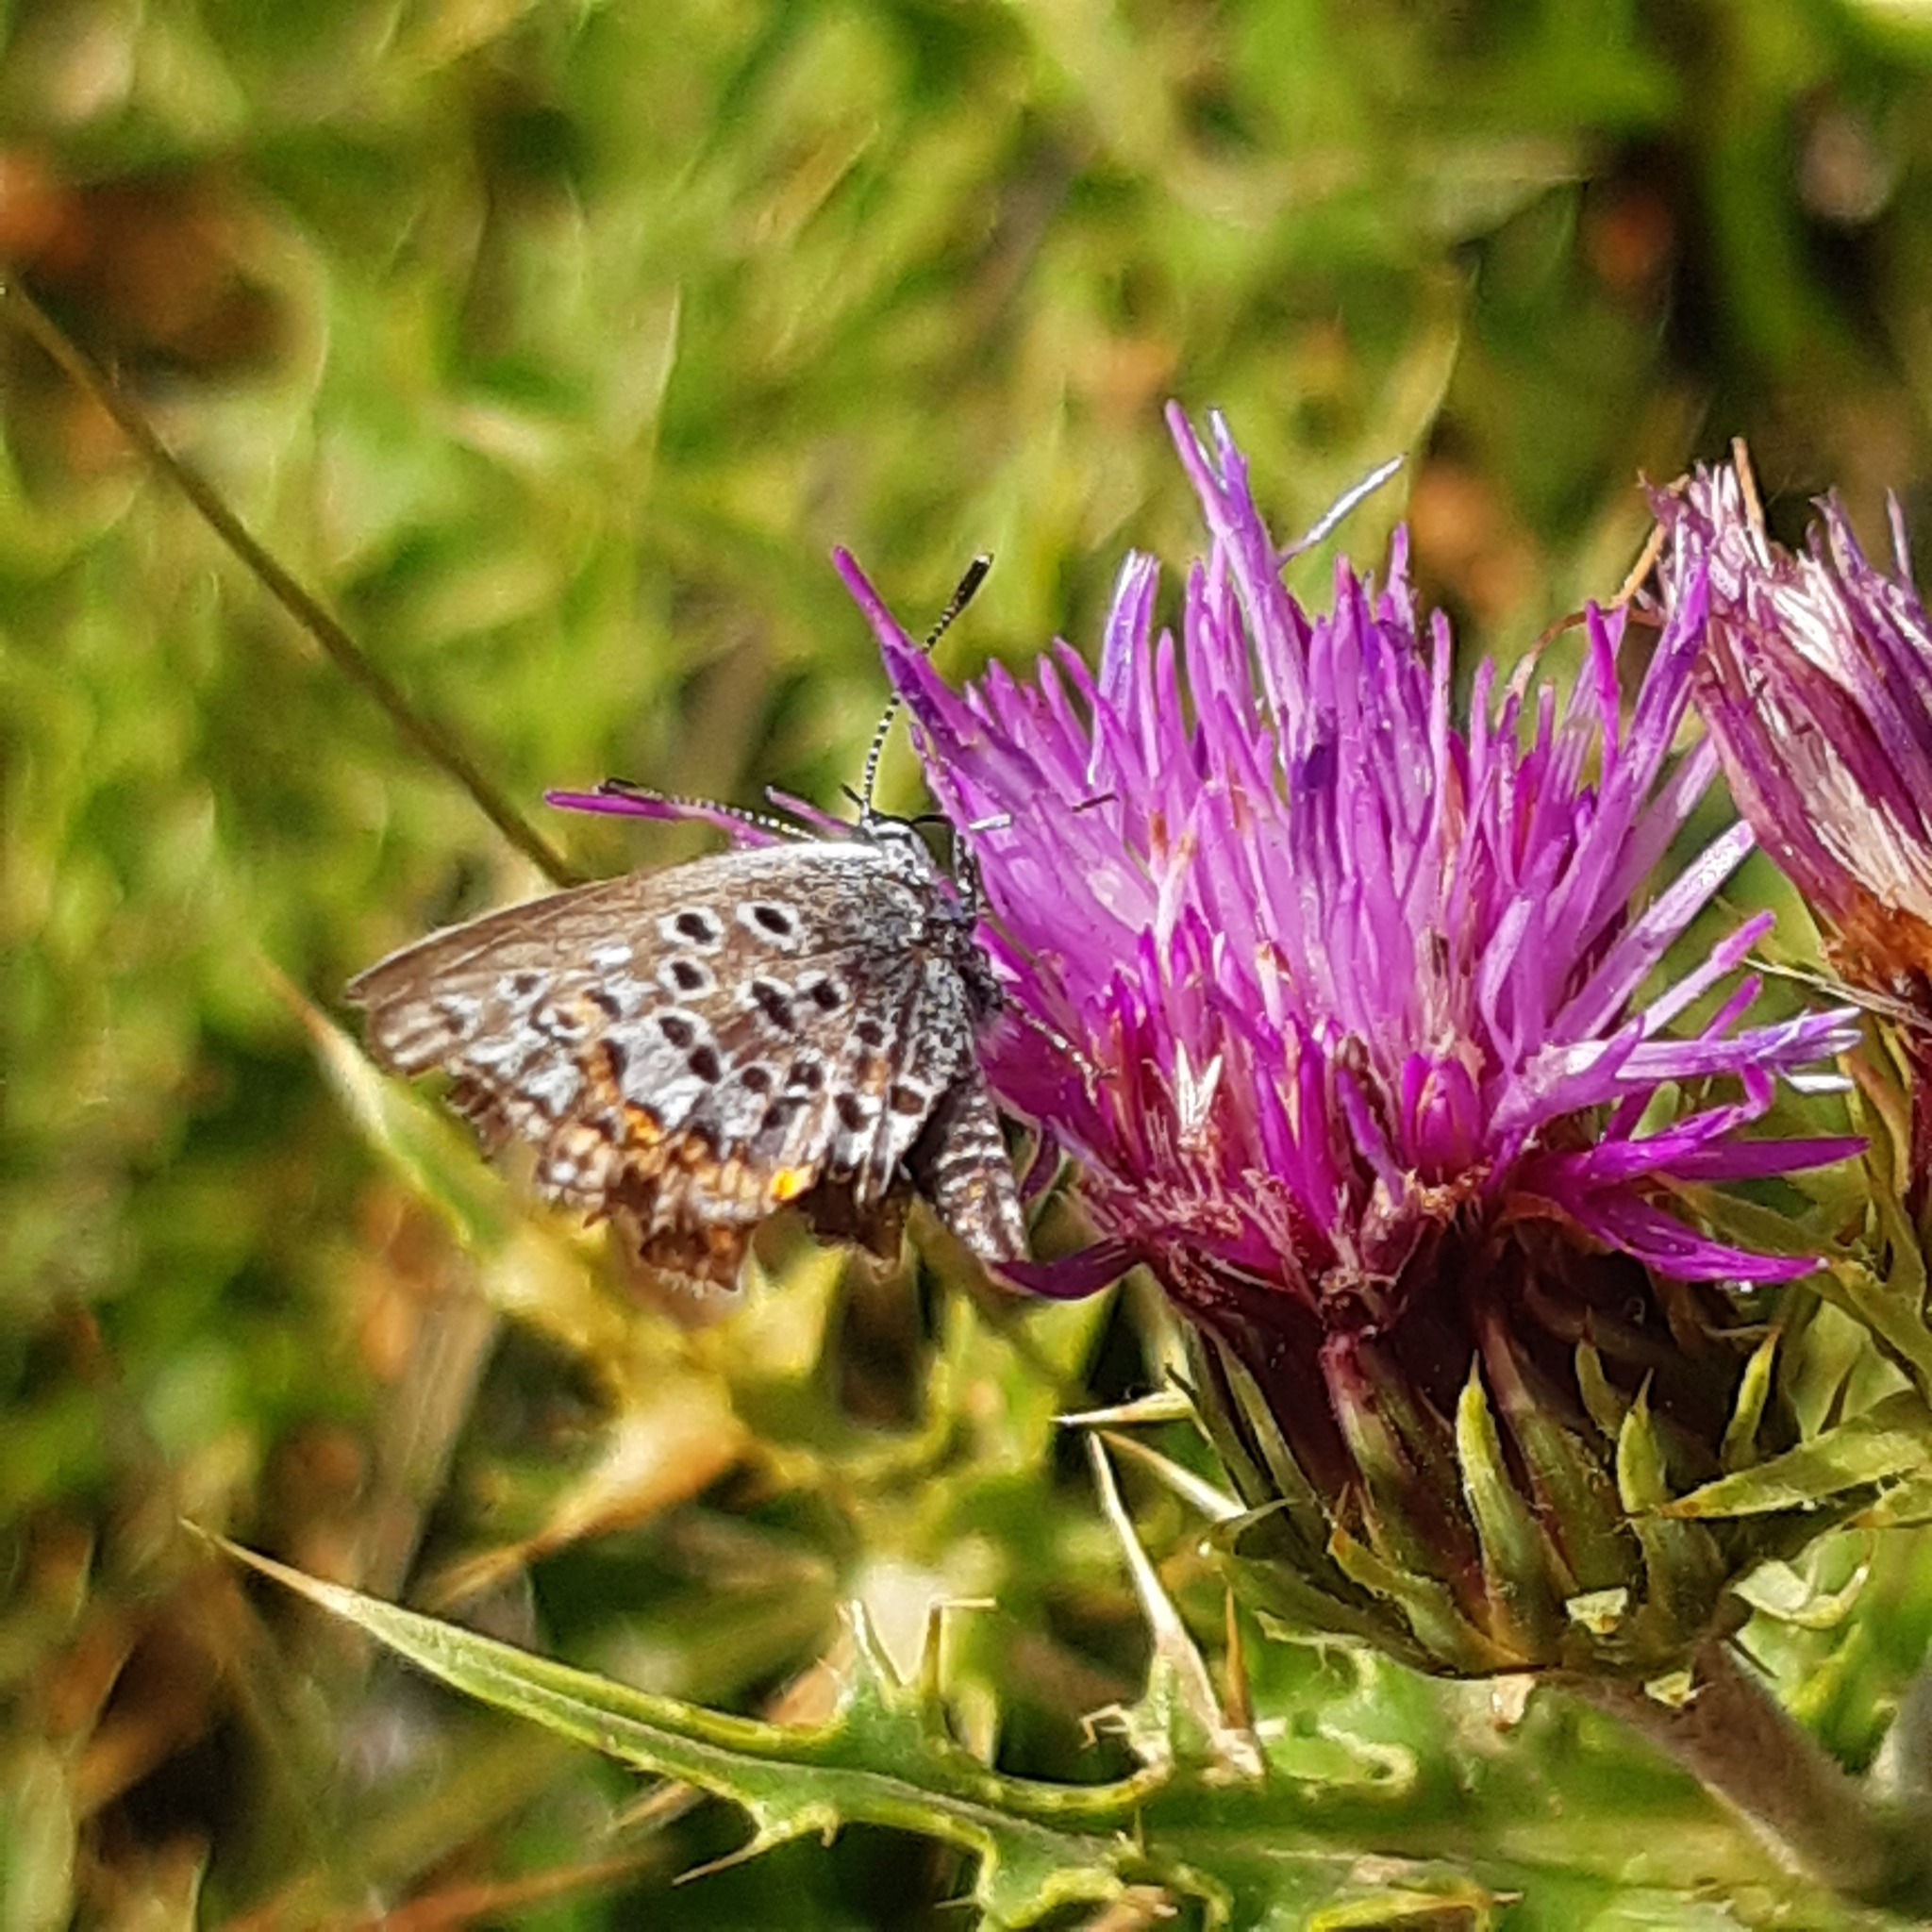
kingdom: Animalia
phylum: Arthropoda
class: Insecta
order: Lepidoptera
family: Lycaenidae
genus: Plebejus
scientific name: Plebejus argus
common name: Silver-studded blue
